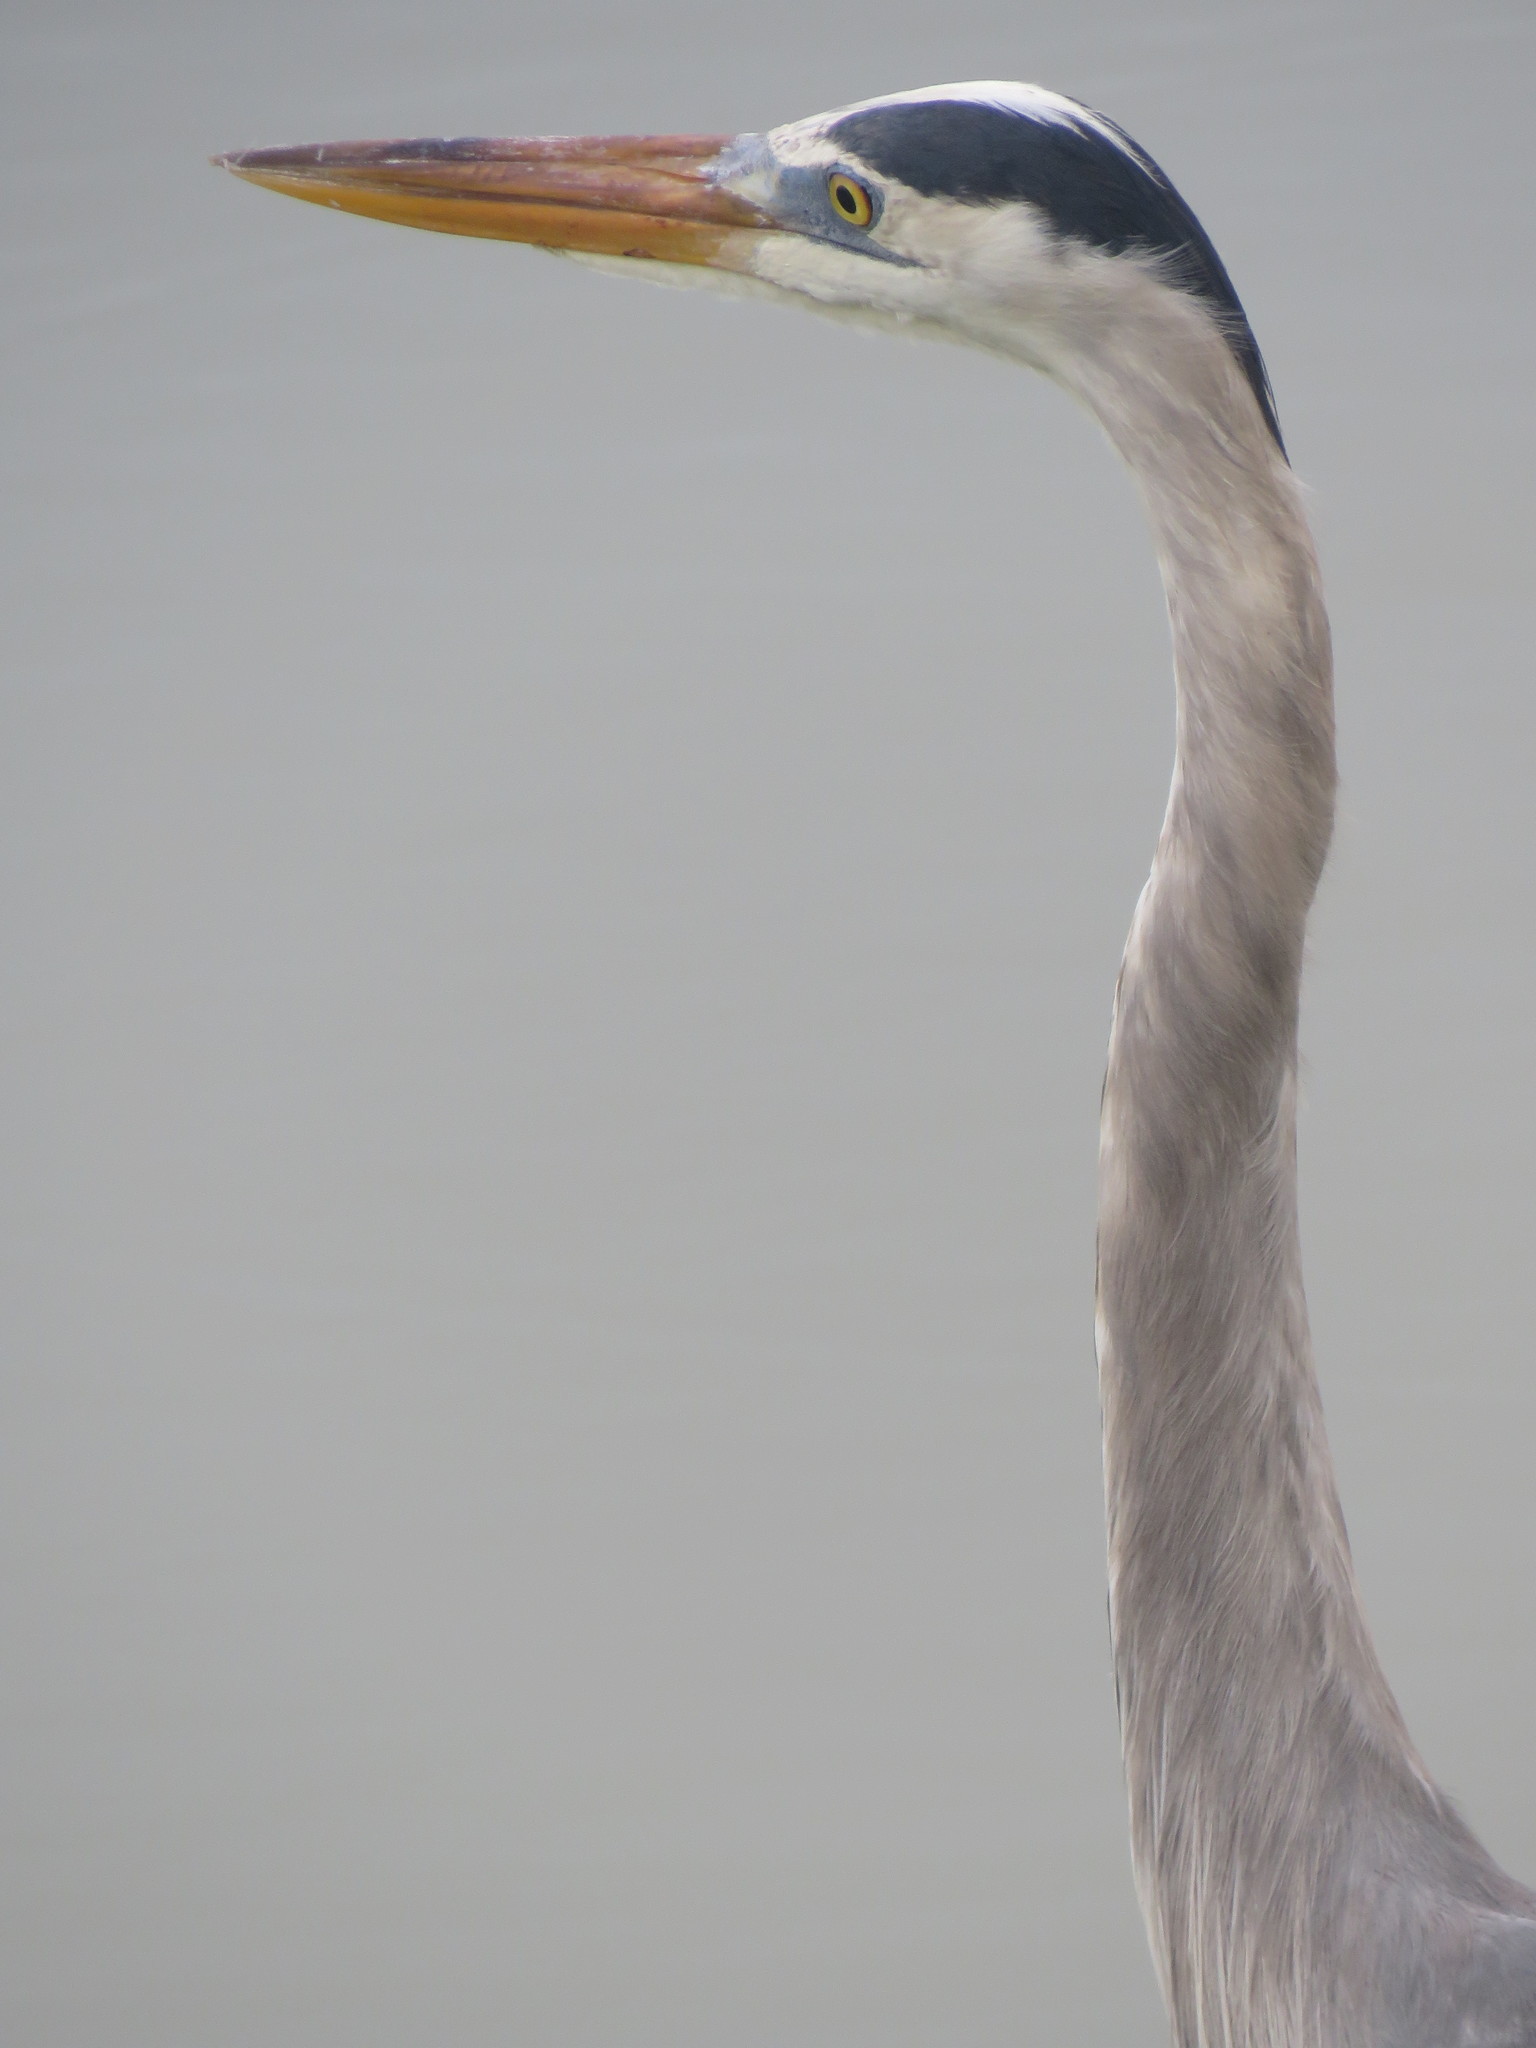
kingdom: Animalia
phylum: Chordata
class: Aves
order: Pelecaniformes
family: Ardeidae
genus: Ardea
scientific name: Ardea herodias
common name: Great blue heron
